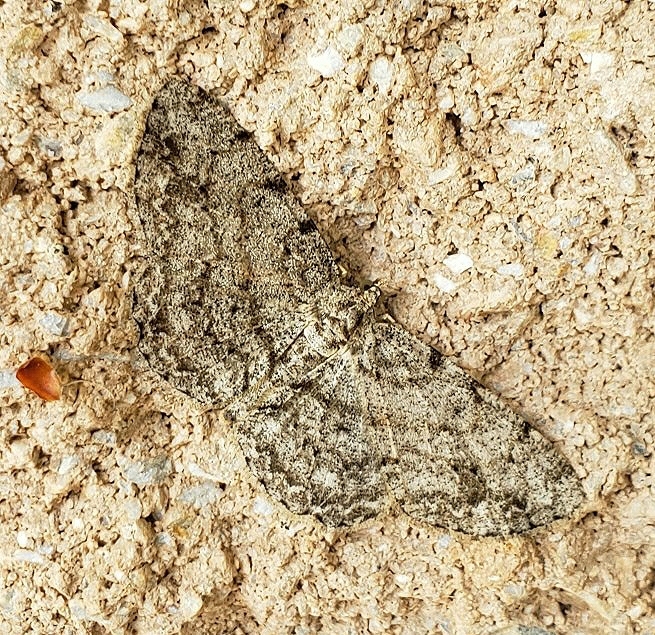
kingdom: Animalia
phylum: Arthropoda
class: Insecta
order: Lepidoptera
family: Geometridae
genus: Protoboarmia
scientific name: Protoboarmia porcelaria
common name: Porcelain gray
